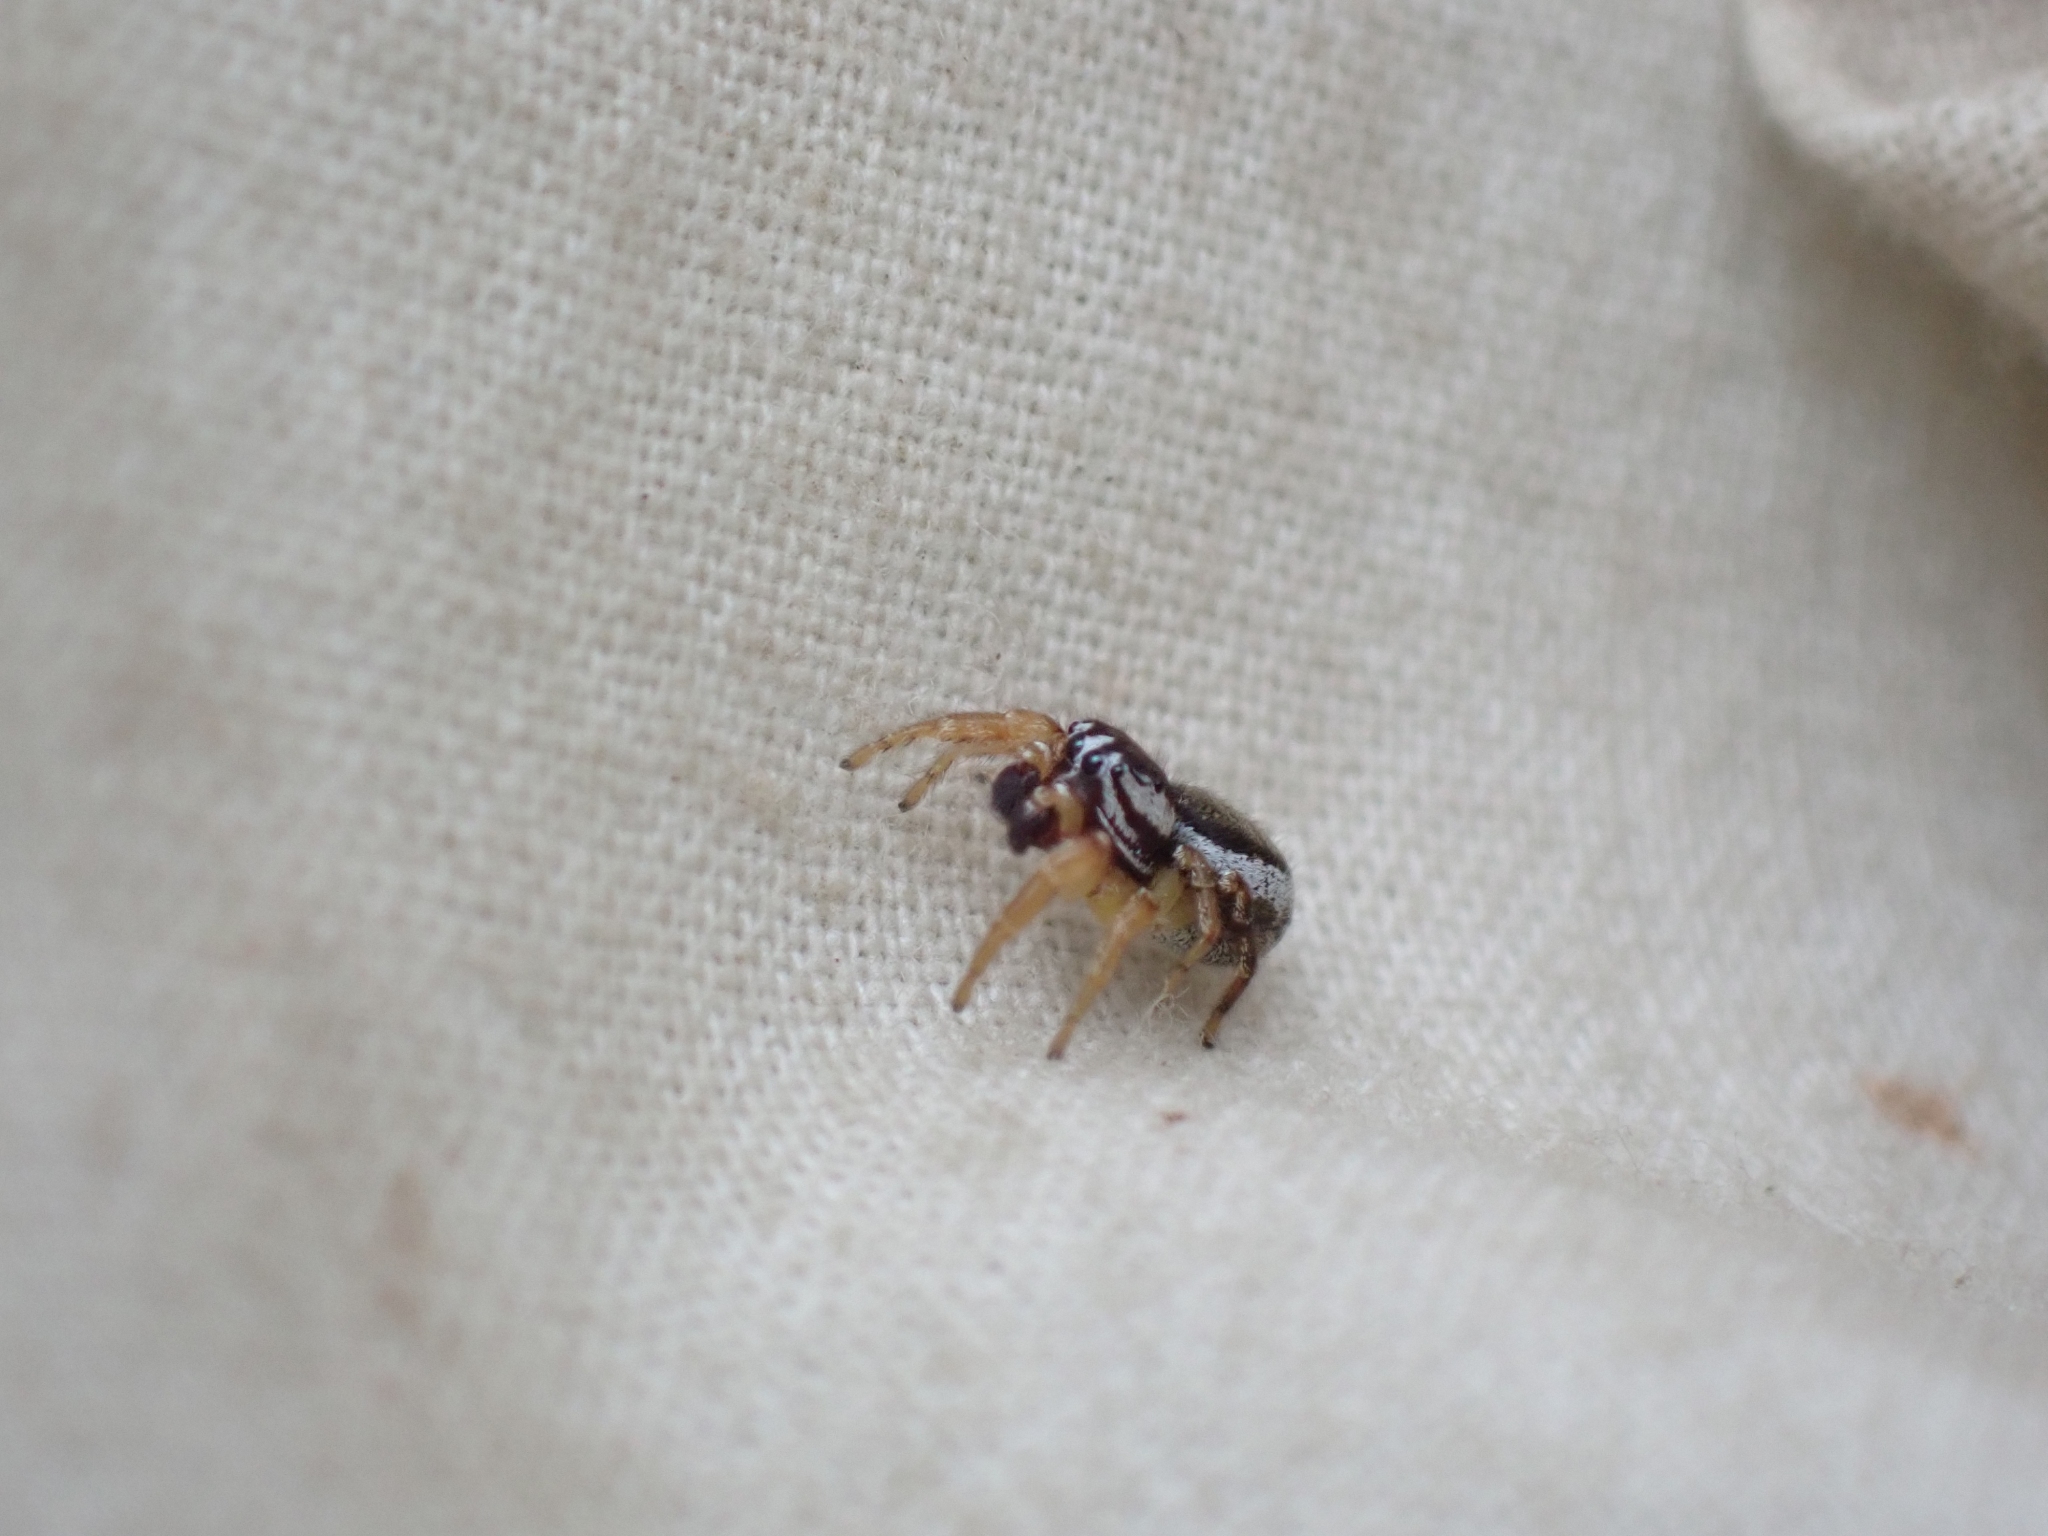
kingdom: Animalia
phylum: Arthropoda
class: Arachnida
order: Araneae
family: Salticidae
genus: Pelegrina
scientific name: Pelegrina flavipes
